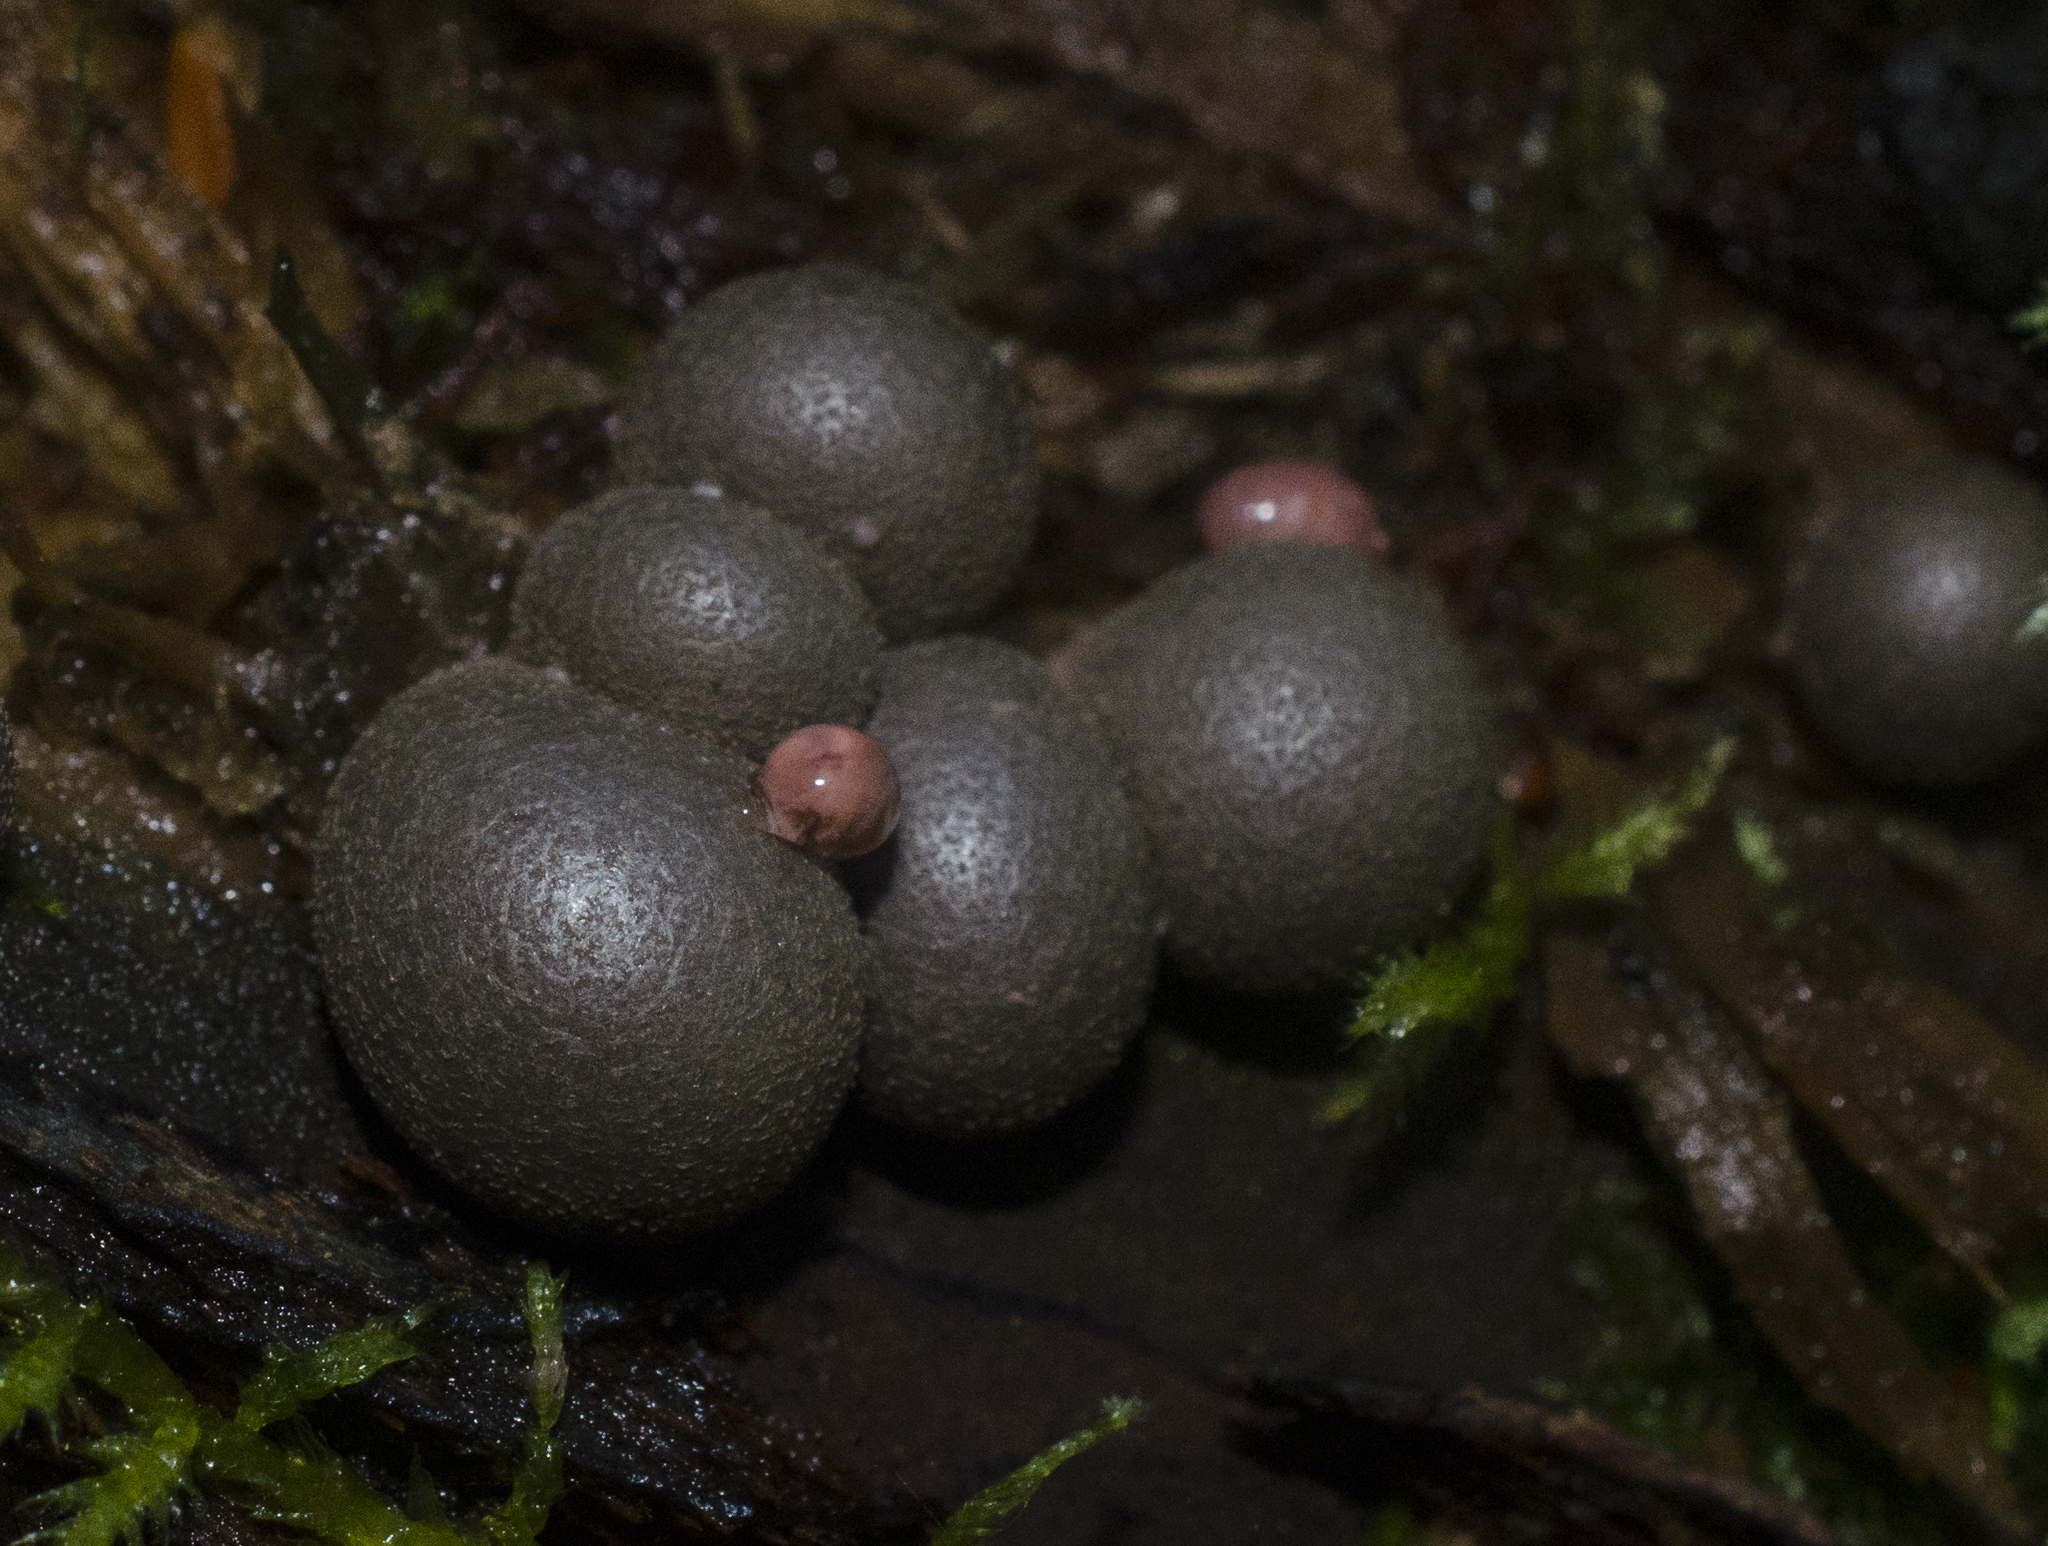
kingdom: Protozoa
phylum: Mycetozoa
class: Myxomycetes
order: Cribrariales
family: Tubiferaceae
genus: Lycogala
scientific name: Lycogala epidendrum
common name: Wolf's milk
